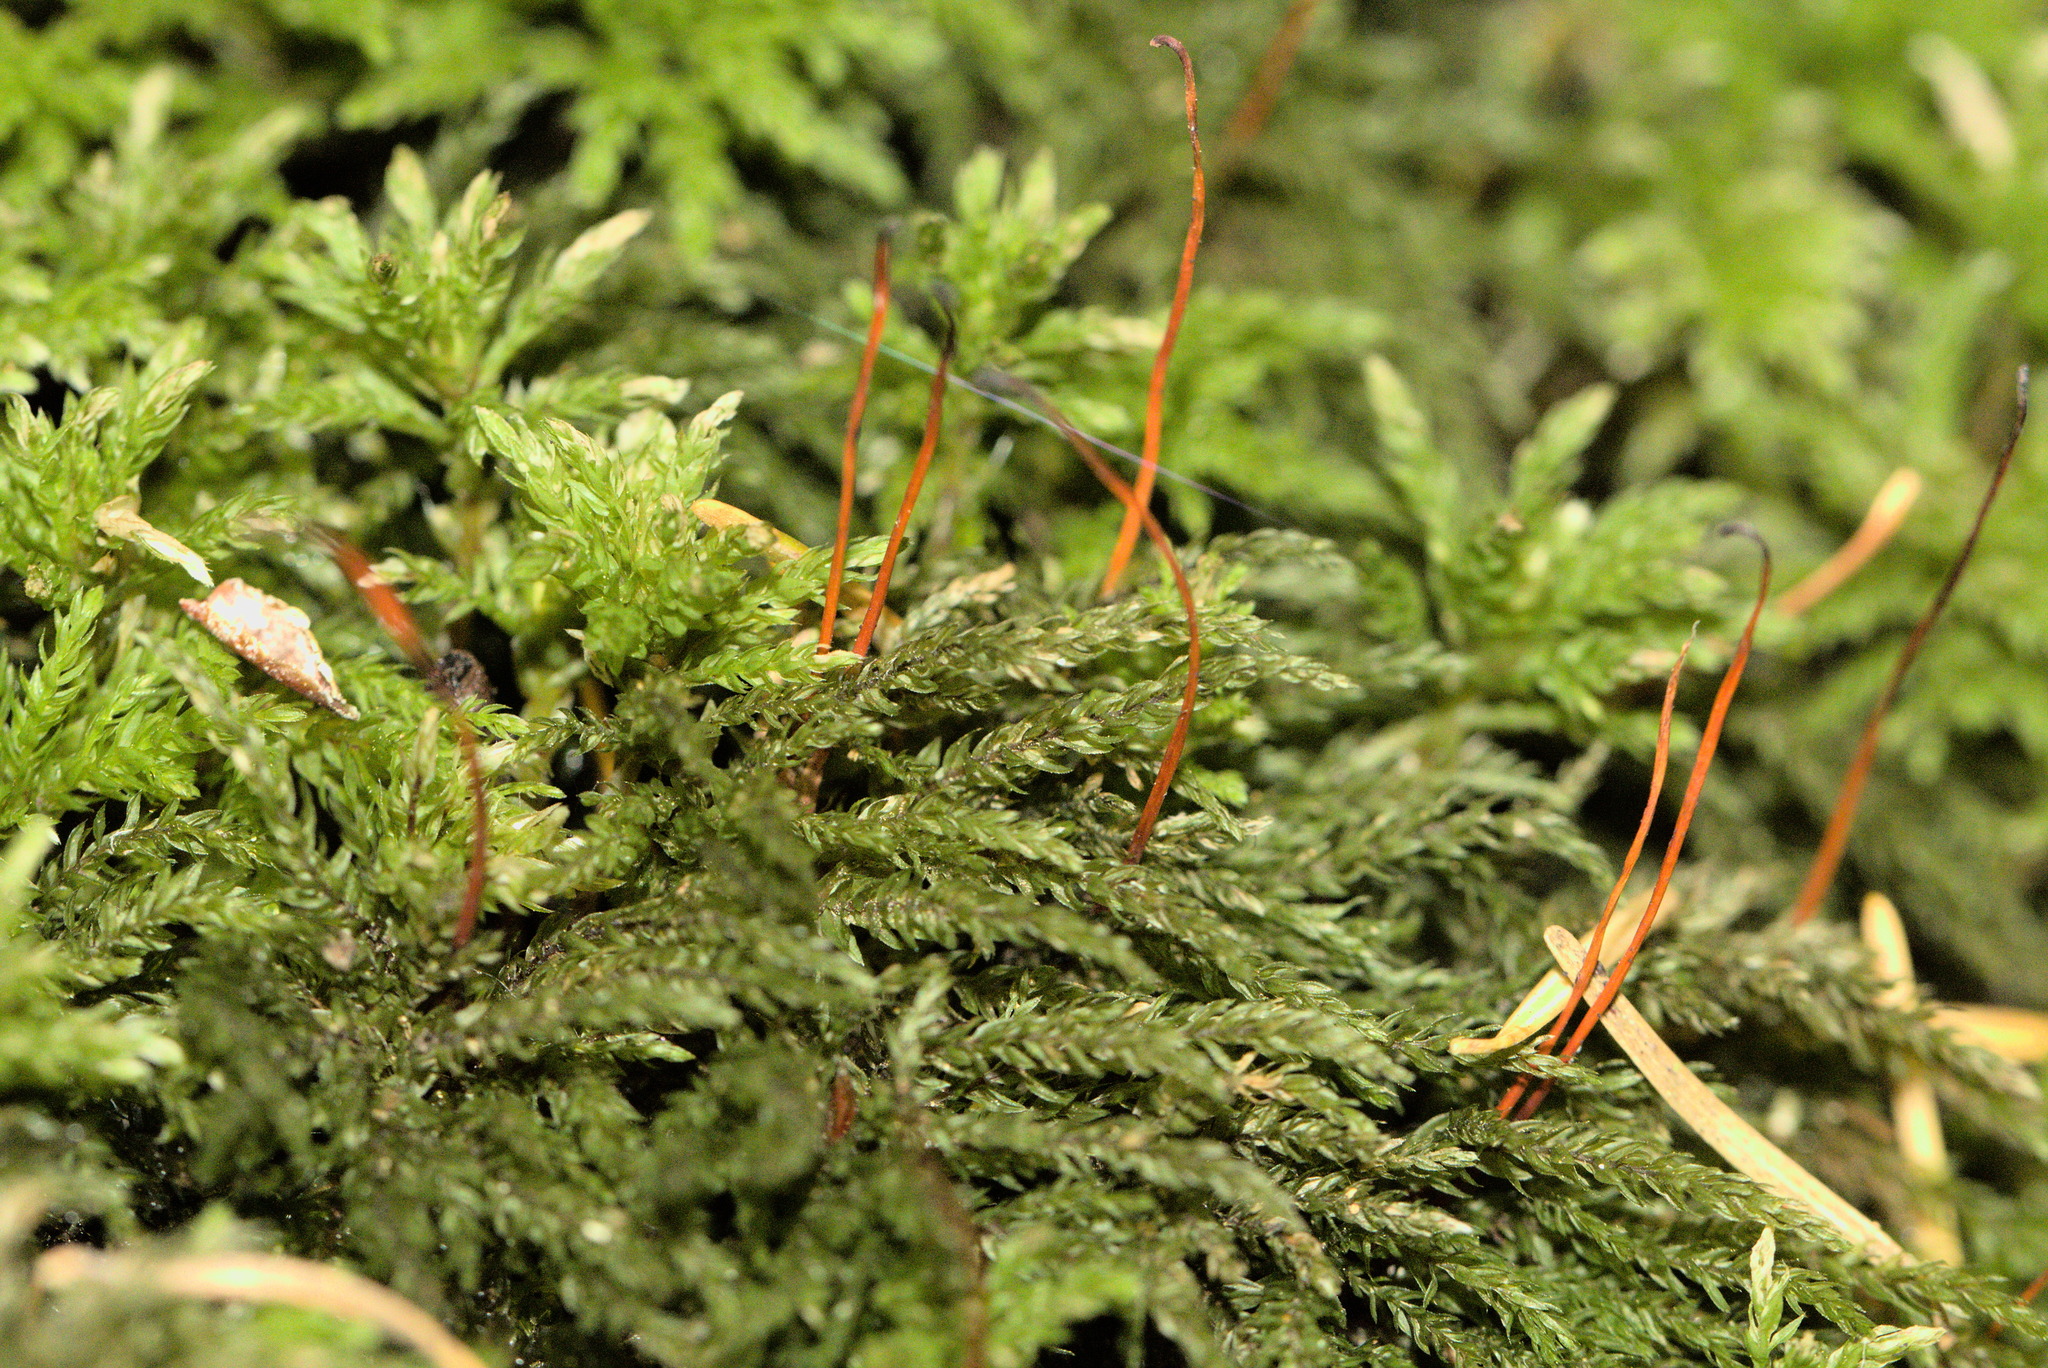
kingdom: Plantae
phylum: Bryophyta
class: Bryopsida
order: Bryales
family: Mniaceae
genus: Leucolepis
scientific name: Leucolepis acanthoneura
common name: Leucolepis umbrella moss
